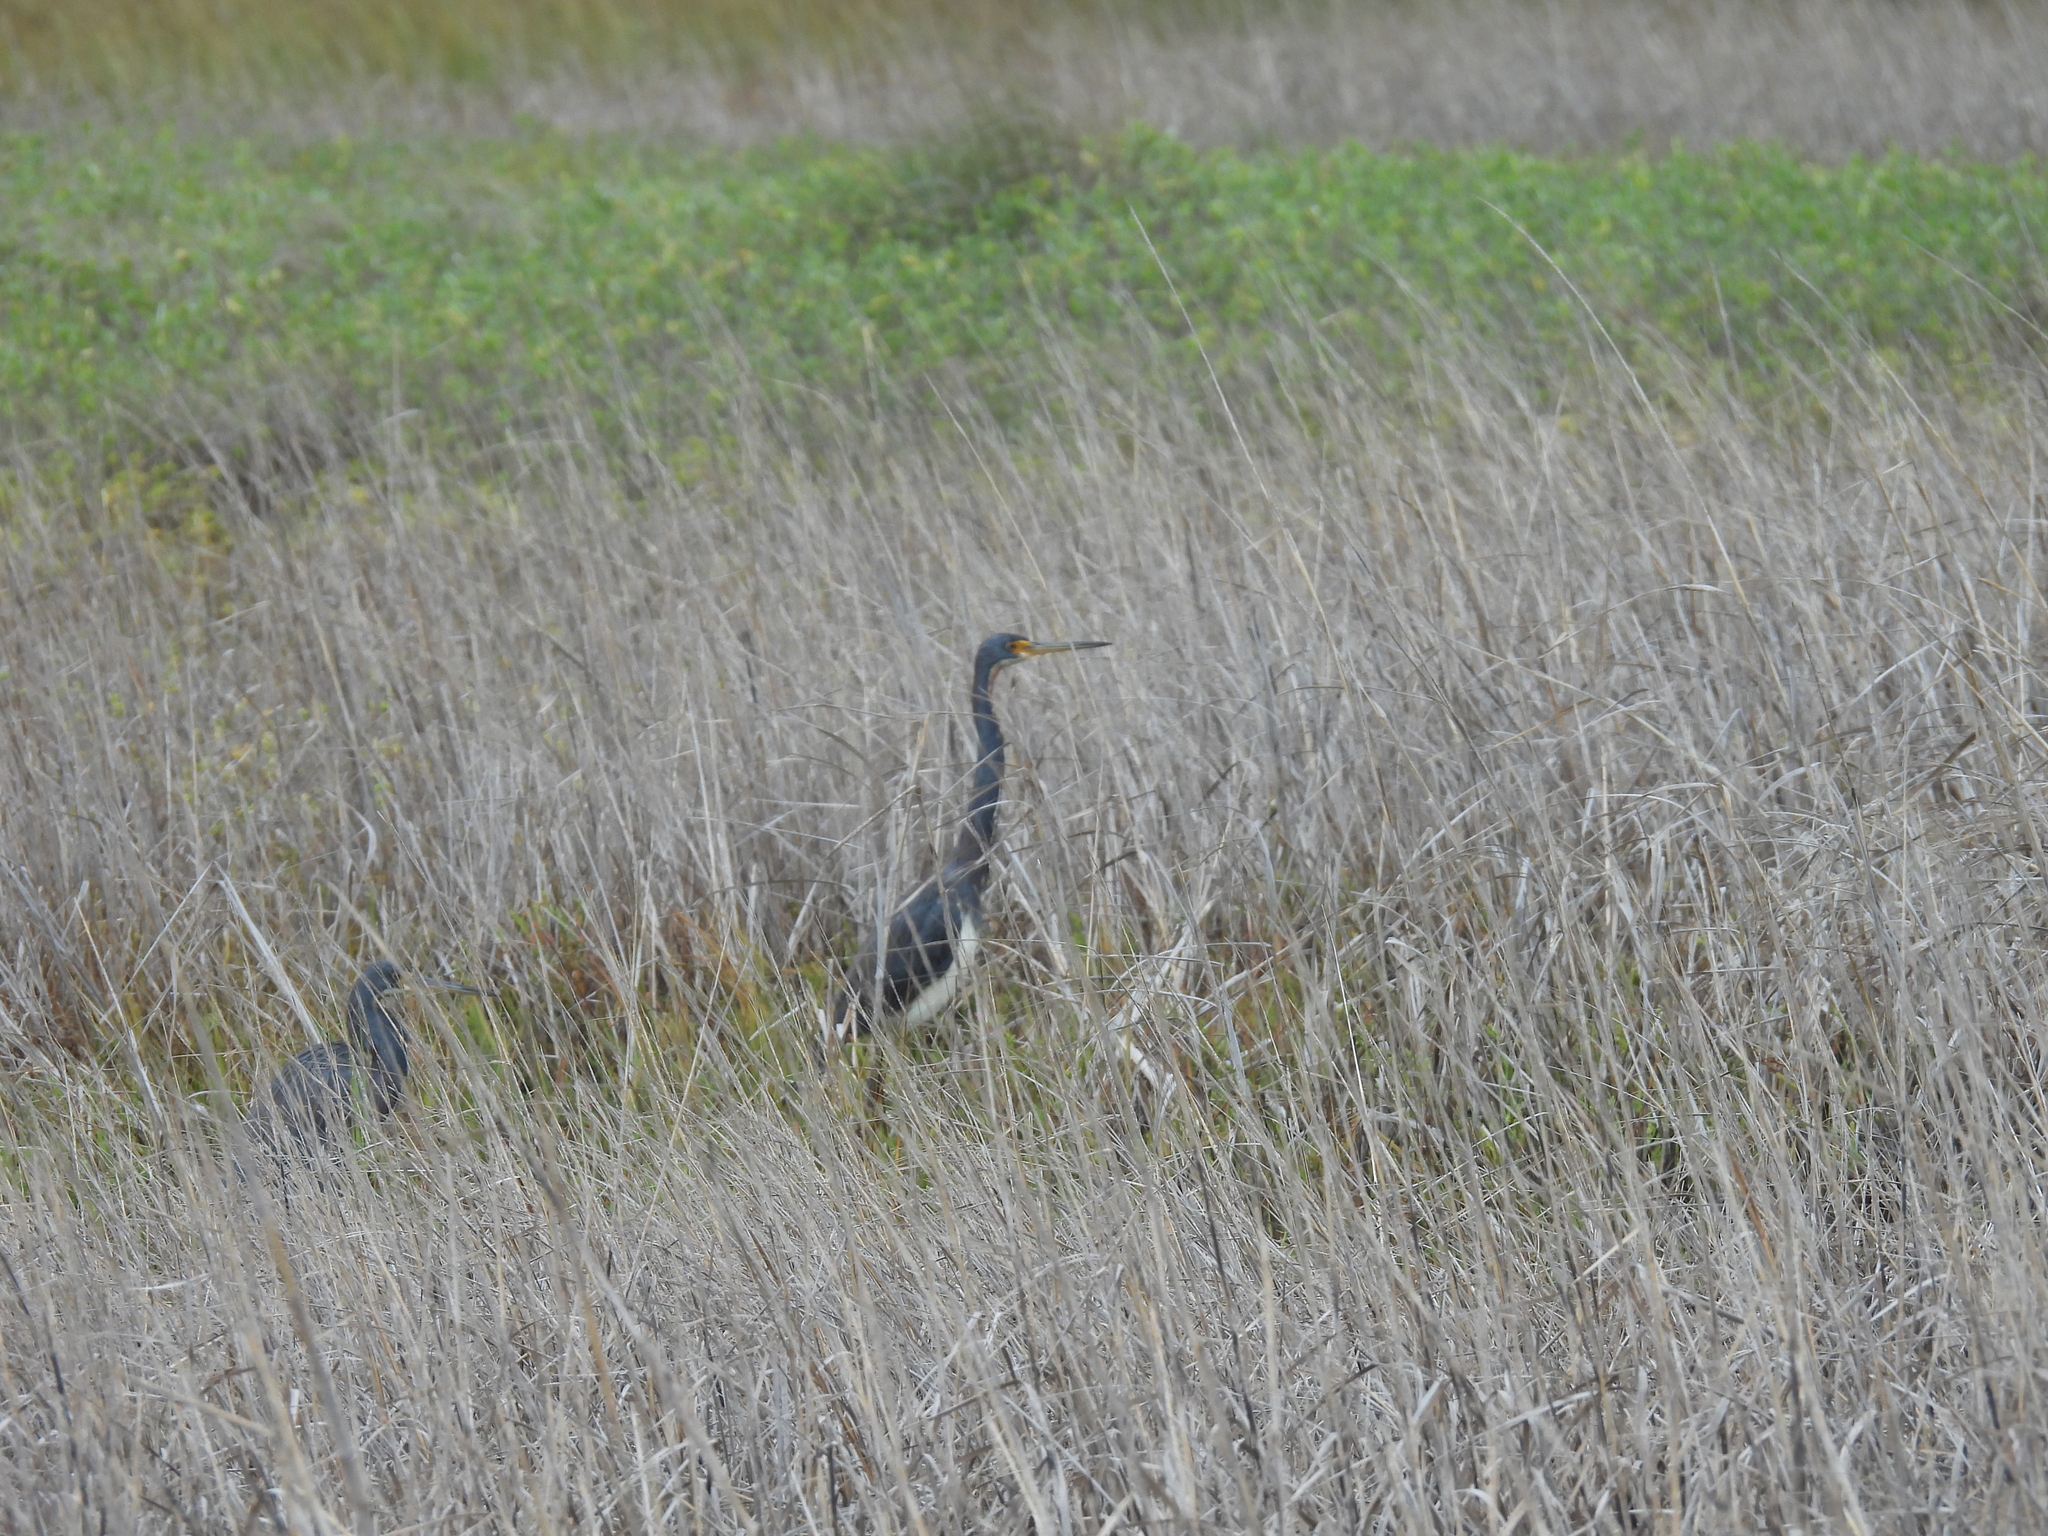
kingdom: Animalia
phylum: Chordata
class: Aves
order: Pelecaniformes
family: Ardeidae
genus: Egretta
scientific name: Egretta tricolor
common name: Tricolored heron
